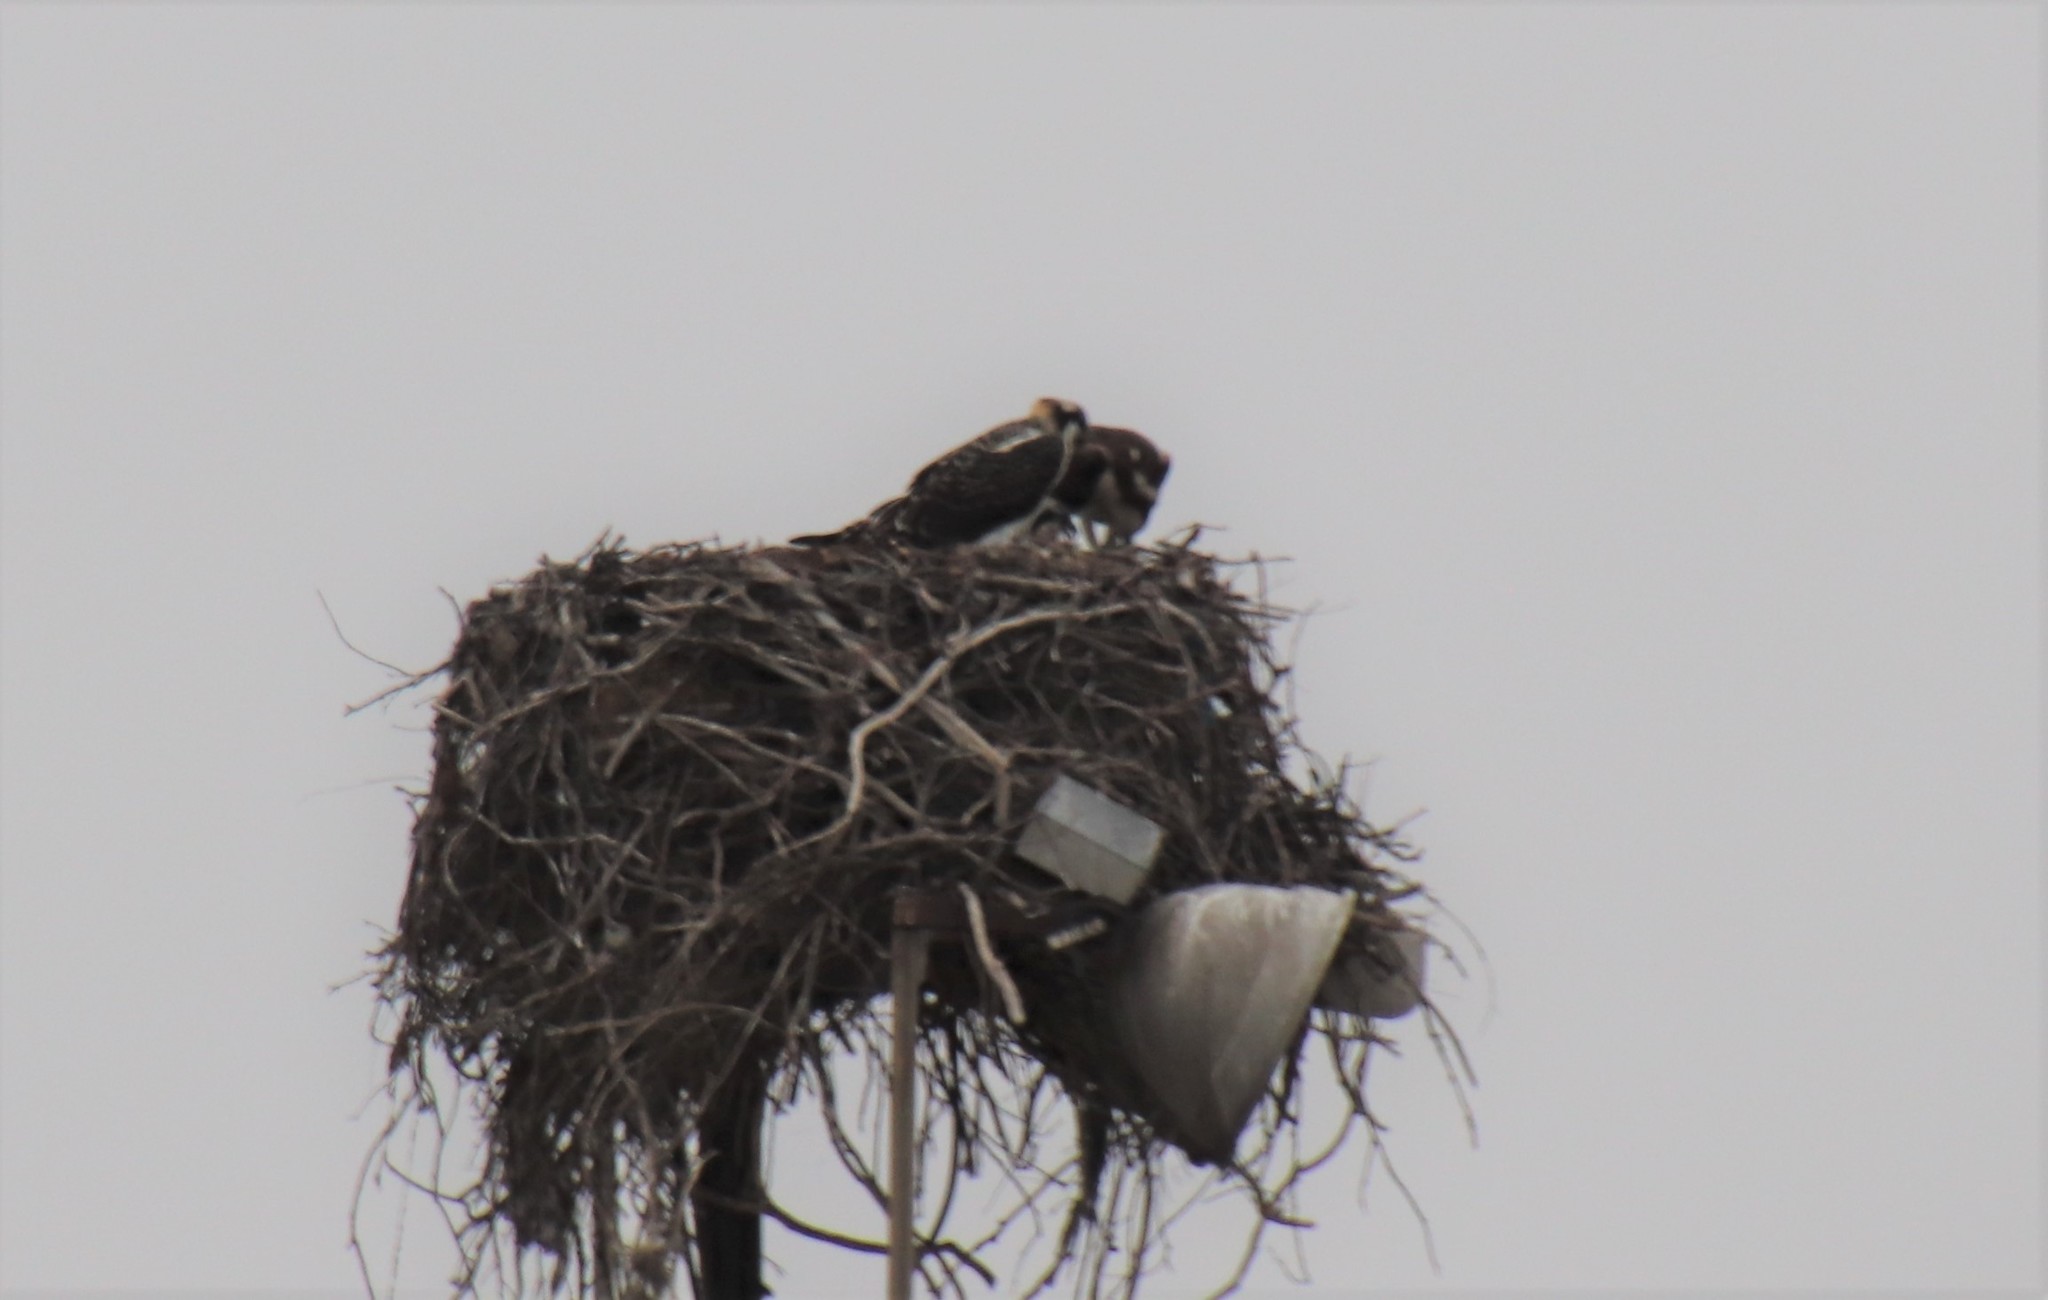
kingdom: Animalia
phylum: Chordata
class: Aves
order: Accipitriformes
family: Pandionidae
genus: Pandion
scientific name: Pandion haliaetus
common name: Osprey
